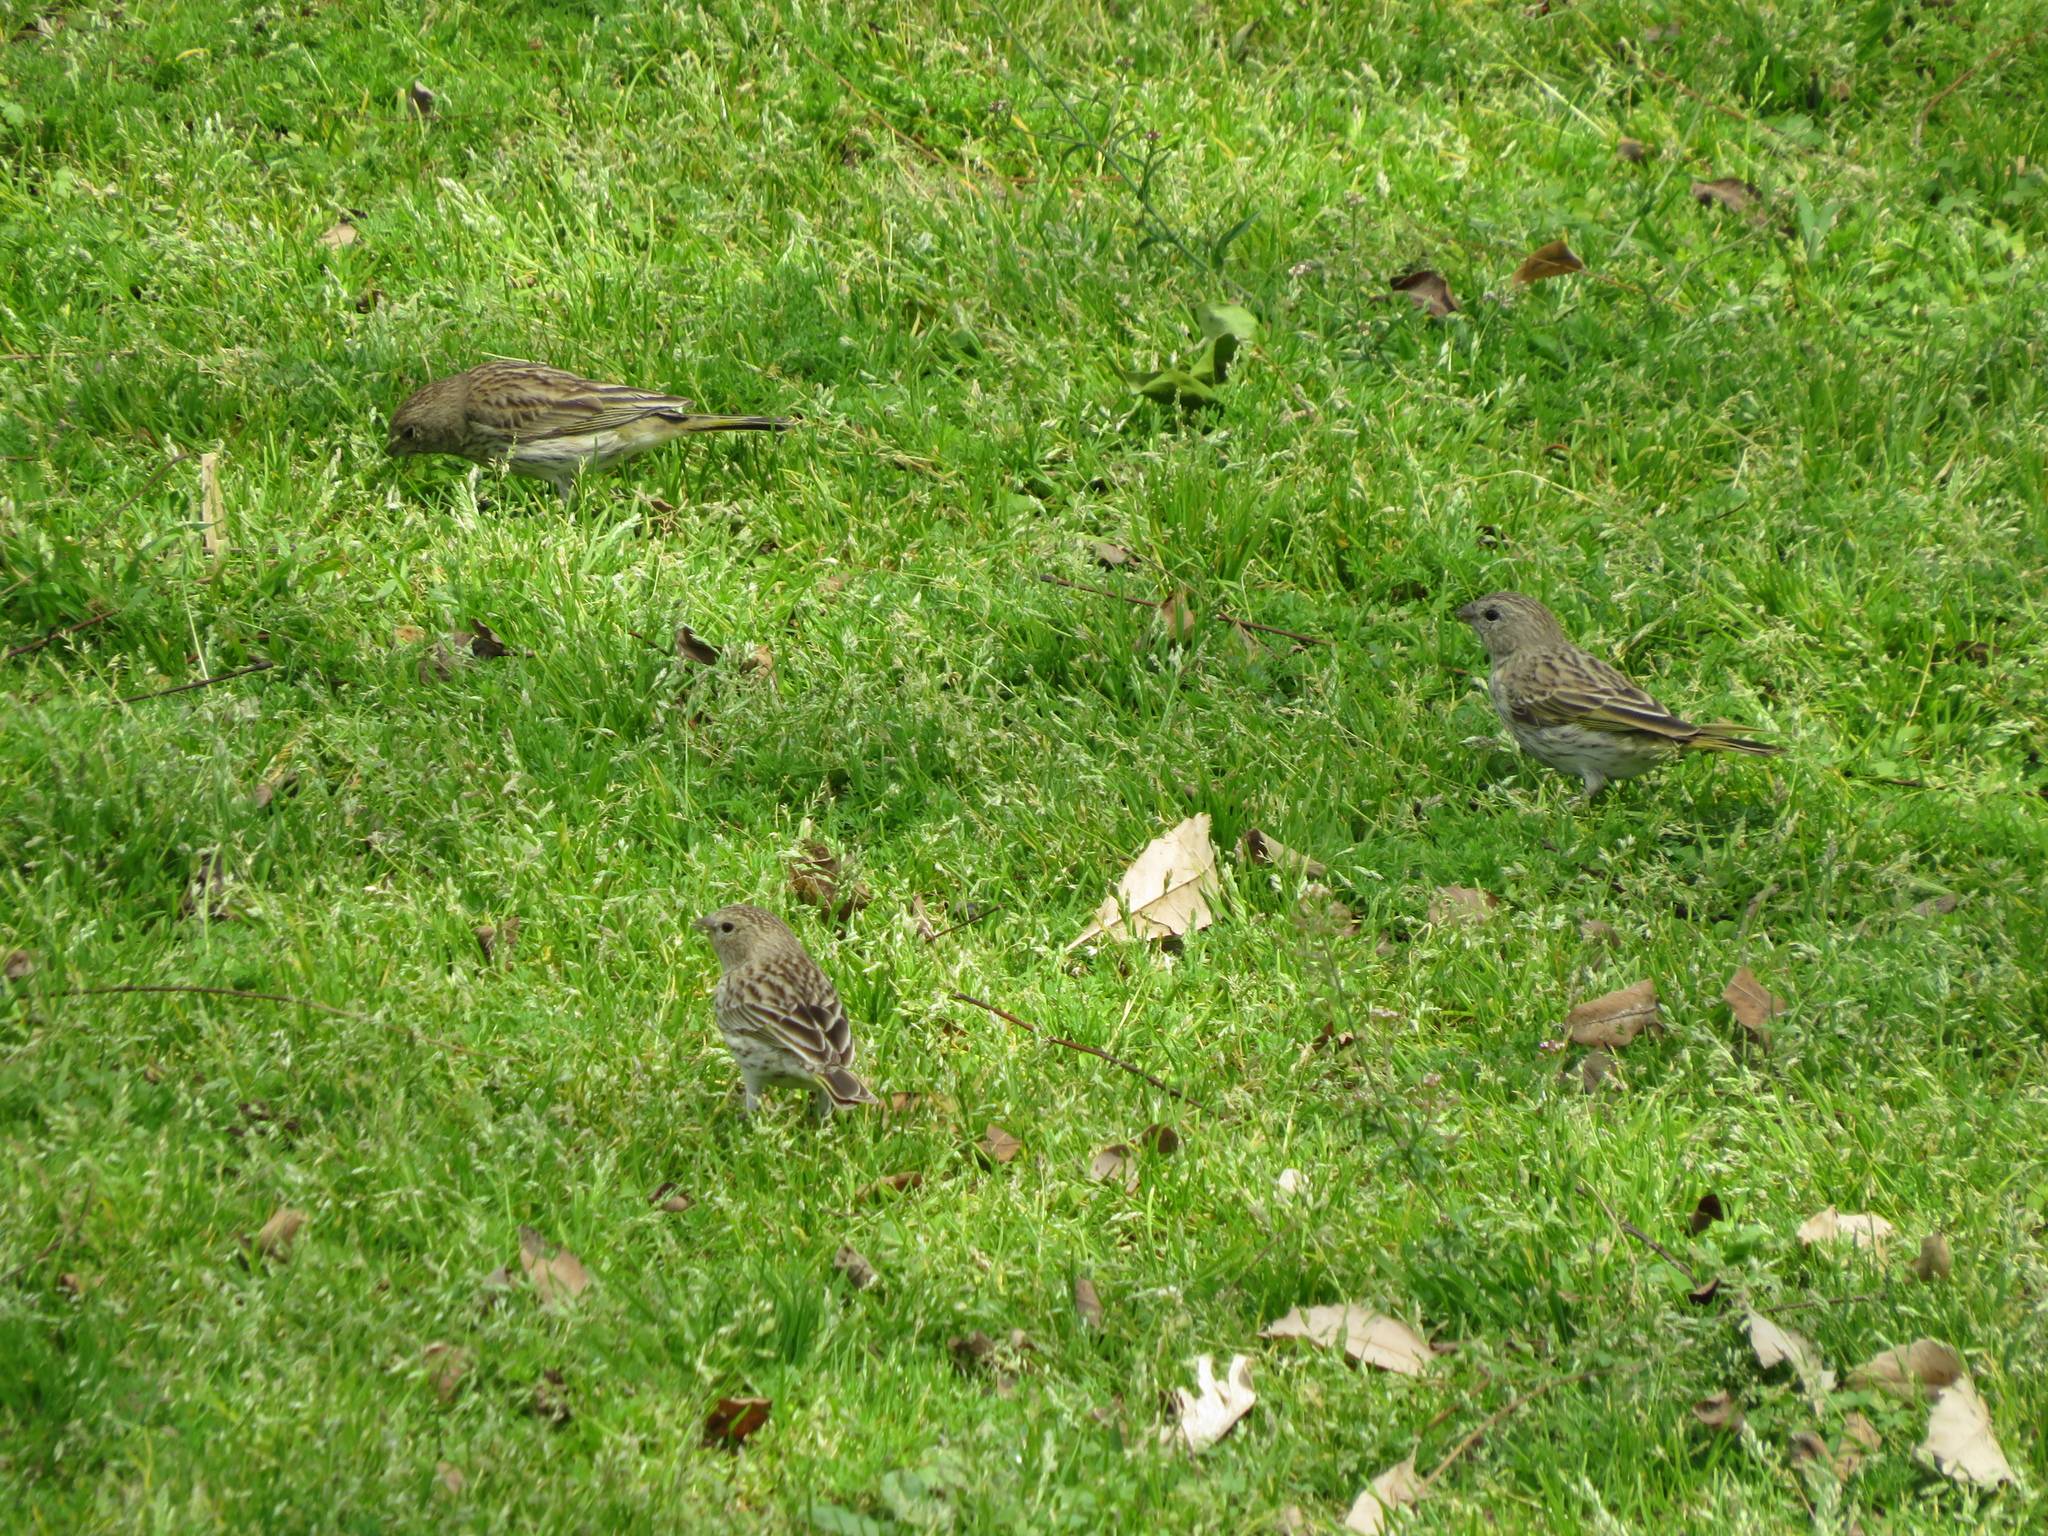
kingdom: Animalia
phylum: Chordata
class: Aves
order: Passeriformes
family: Thraupidae
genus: Sicalis
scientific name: Sicalis flaveola
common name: Saffron finch
